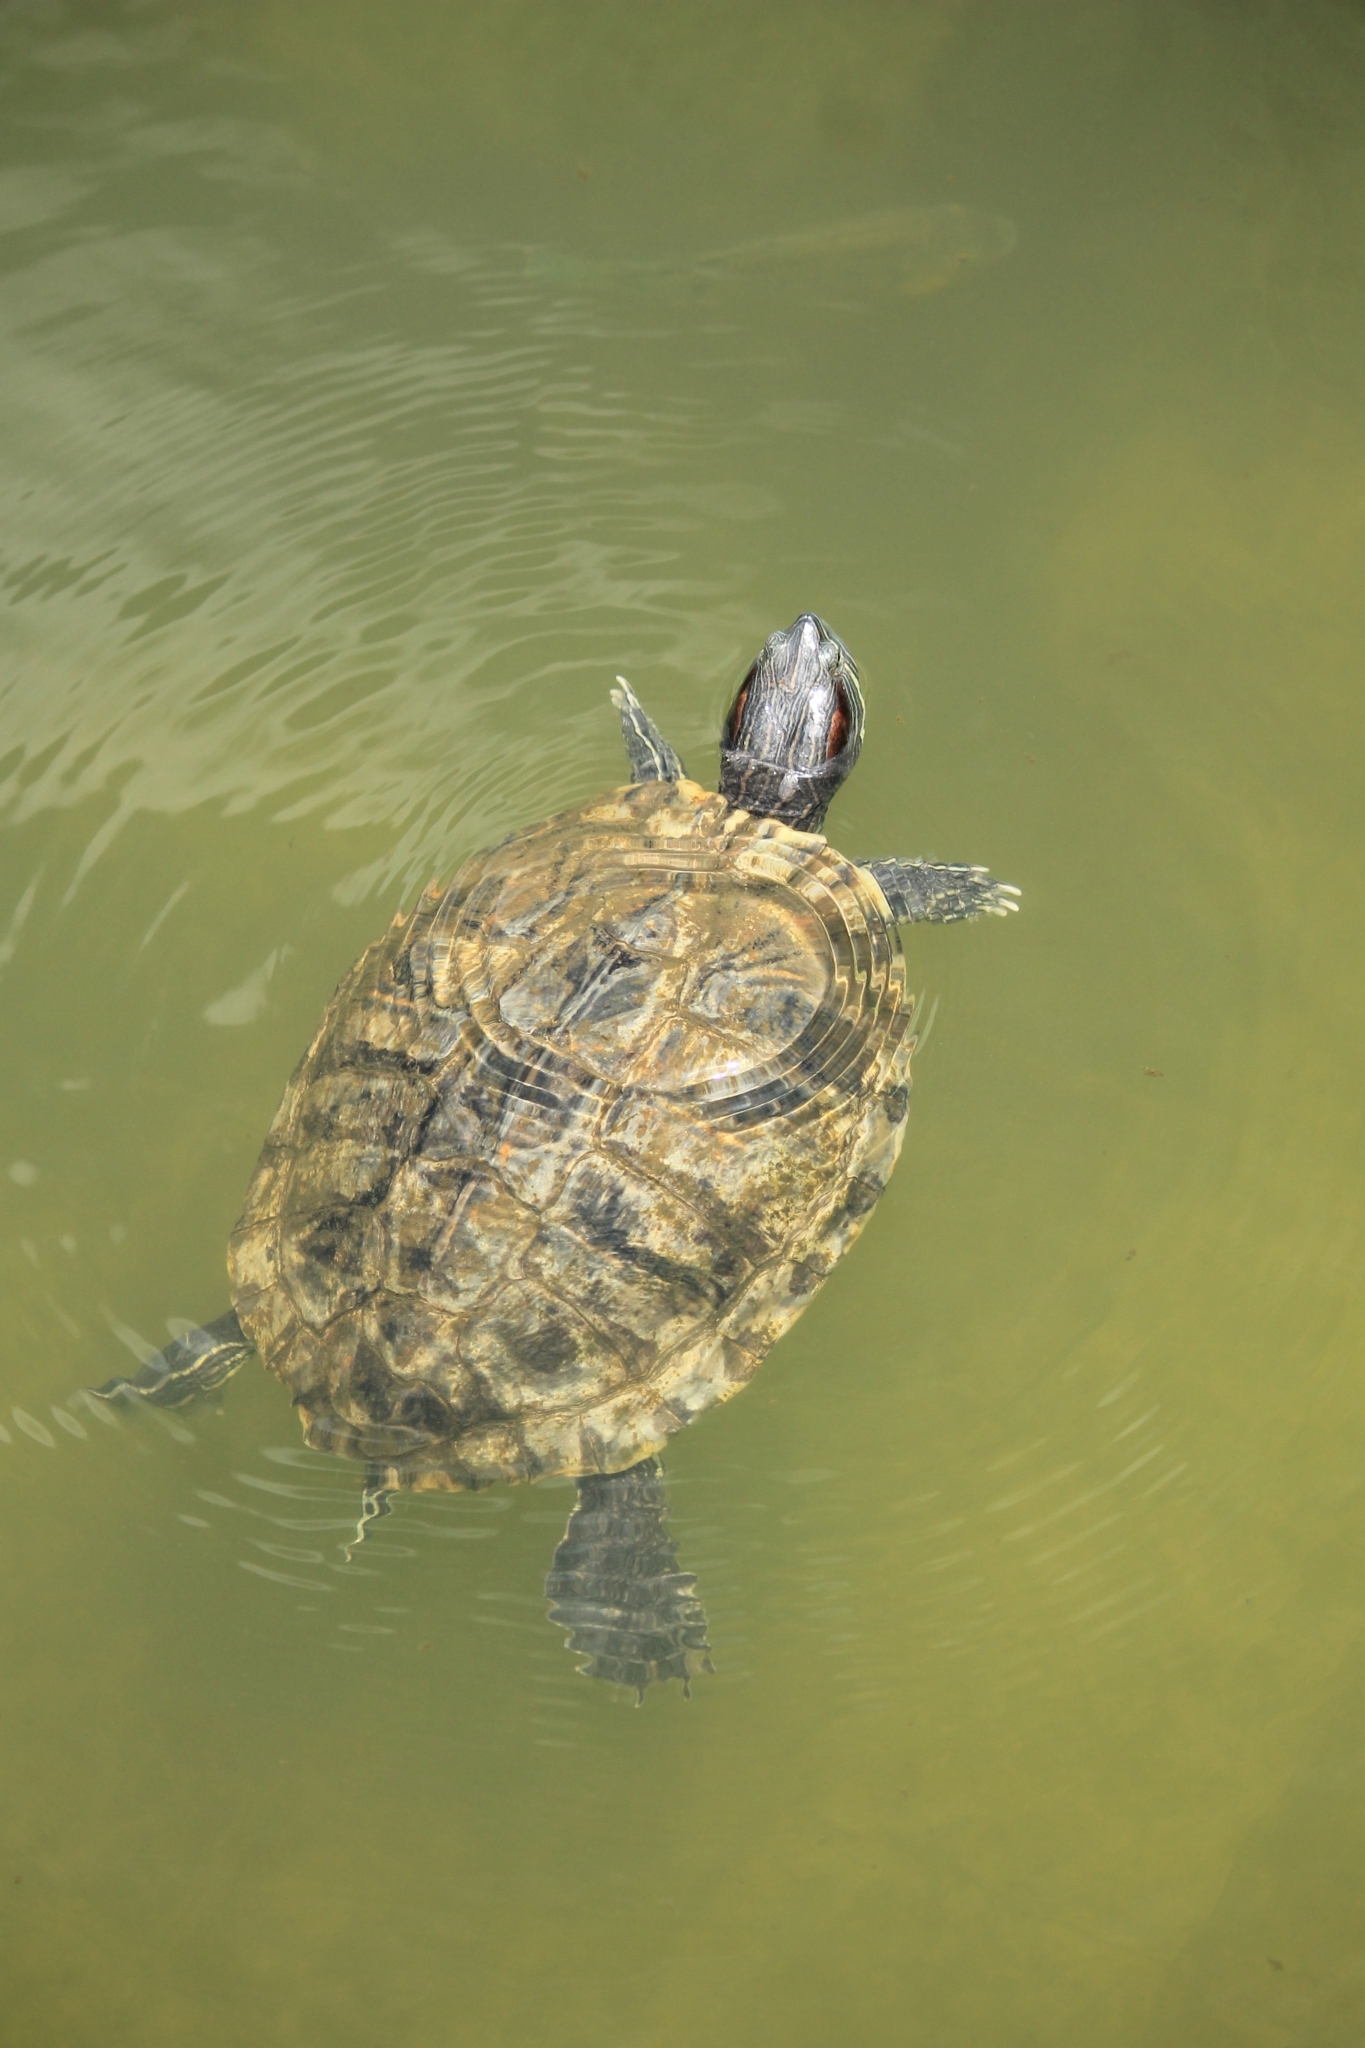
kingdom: Animalia
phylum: Chordata
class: Testudines
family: Emydidae
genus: Trachemys
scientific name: Trachemys scripta
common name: Slider
